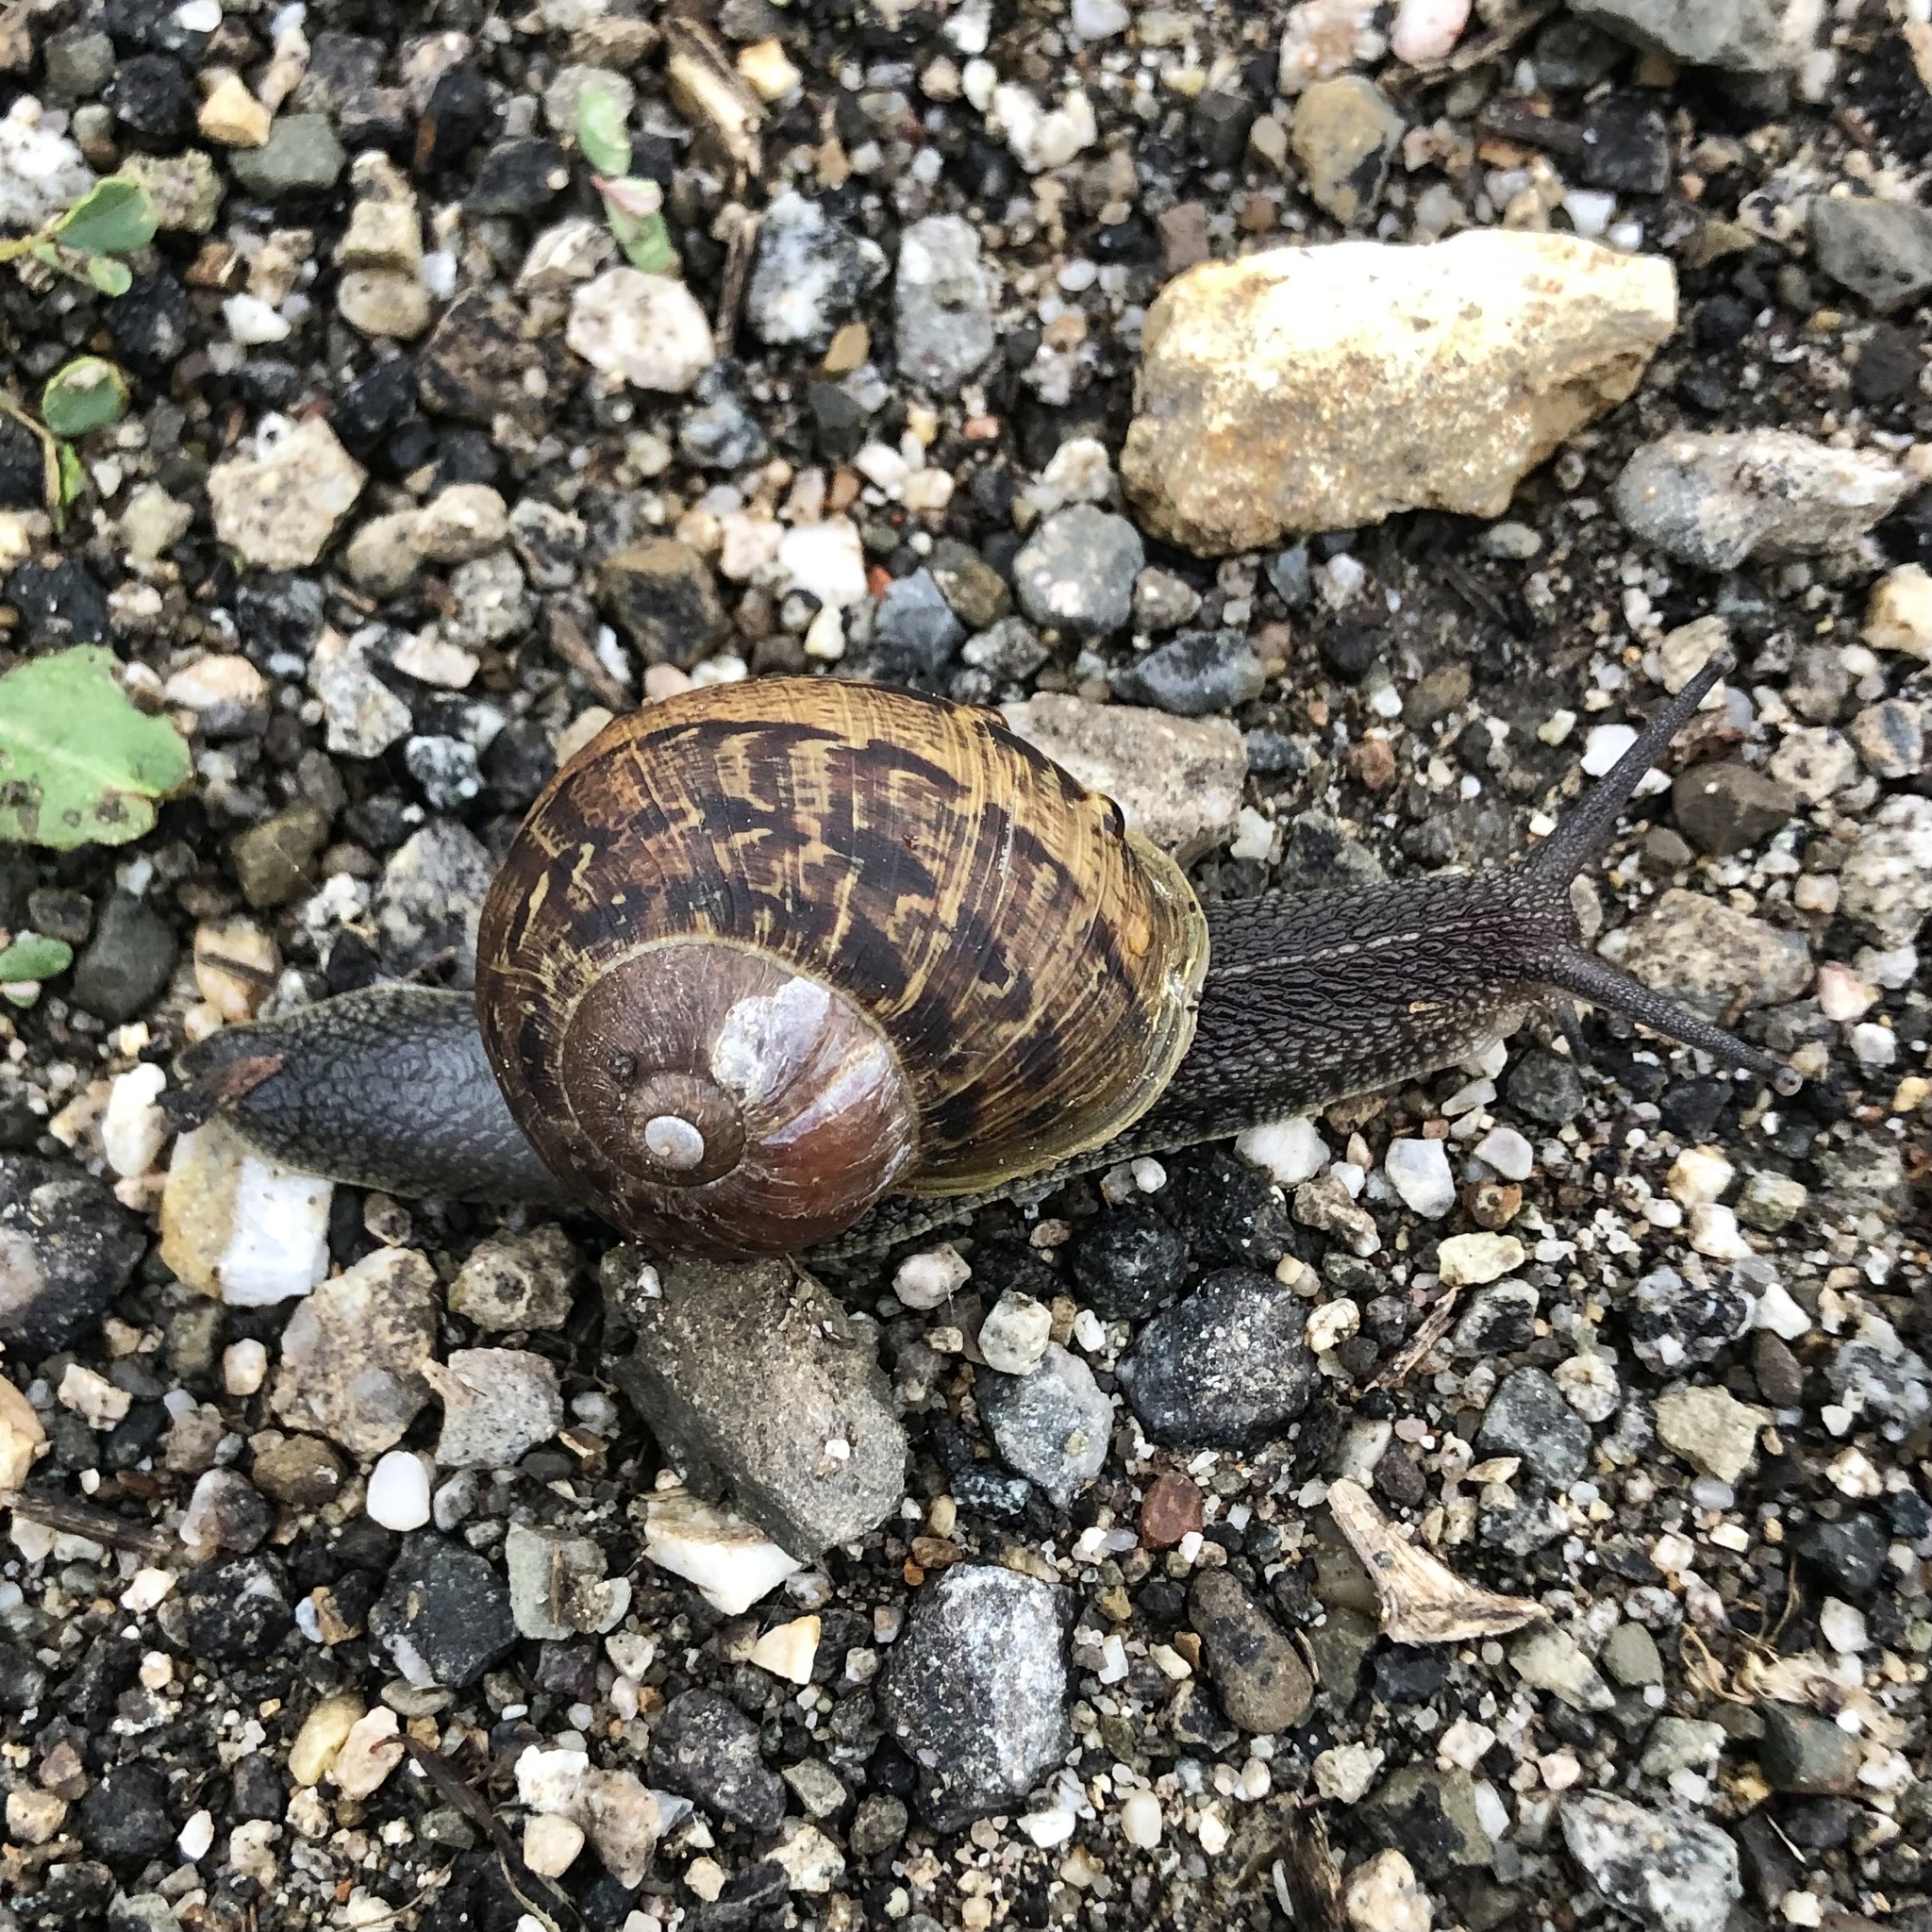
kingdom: Animalia
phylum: Mollusca
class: Gastropoda
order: Stylommatophora
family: Helicidae
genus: Cornu
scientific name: Cornu aspersum
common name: Brown garden snail
